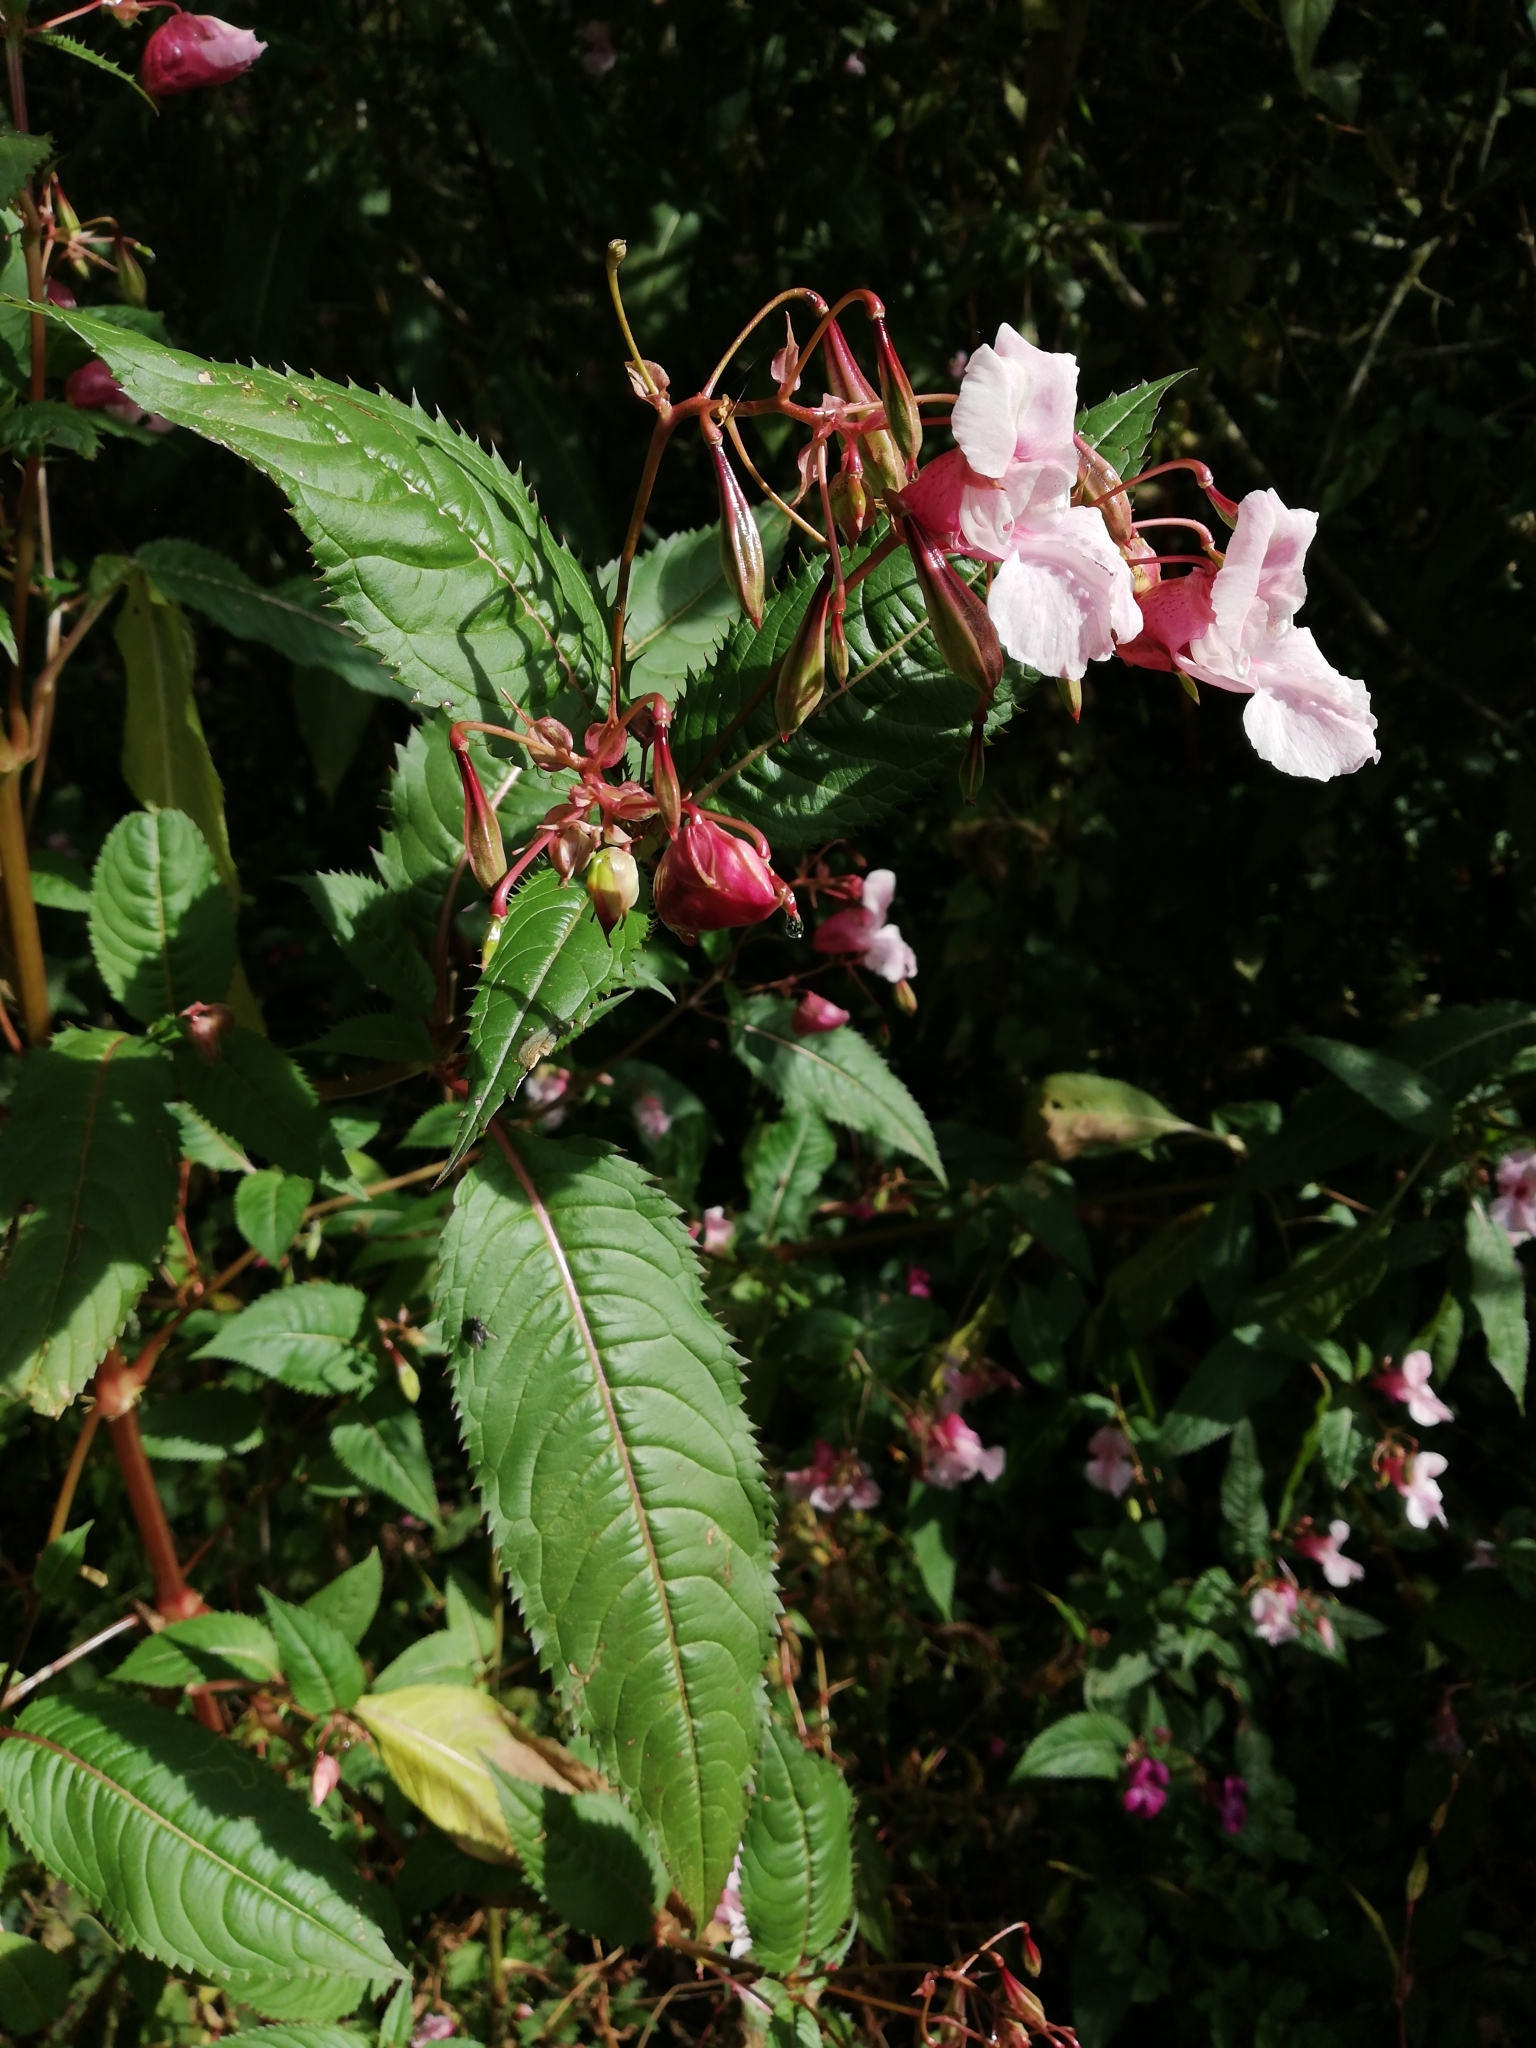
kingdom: Plantae
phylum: Tracheophyta
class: Magnoliopsida
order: Ericales
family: Balsaminaceae
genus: Impatiens
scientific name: Impatiens glandulifera
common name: Himalayan balsam
